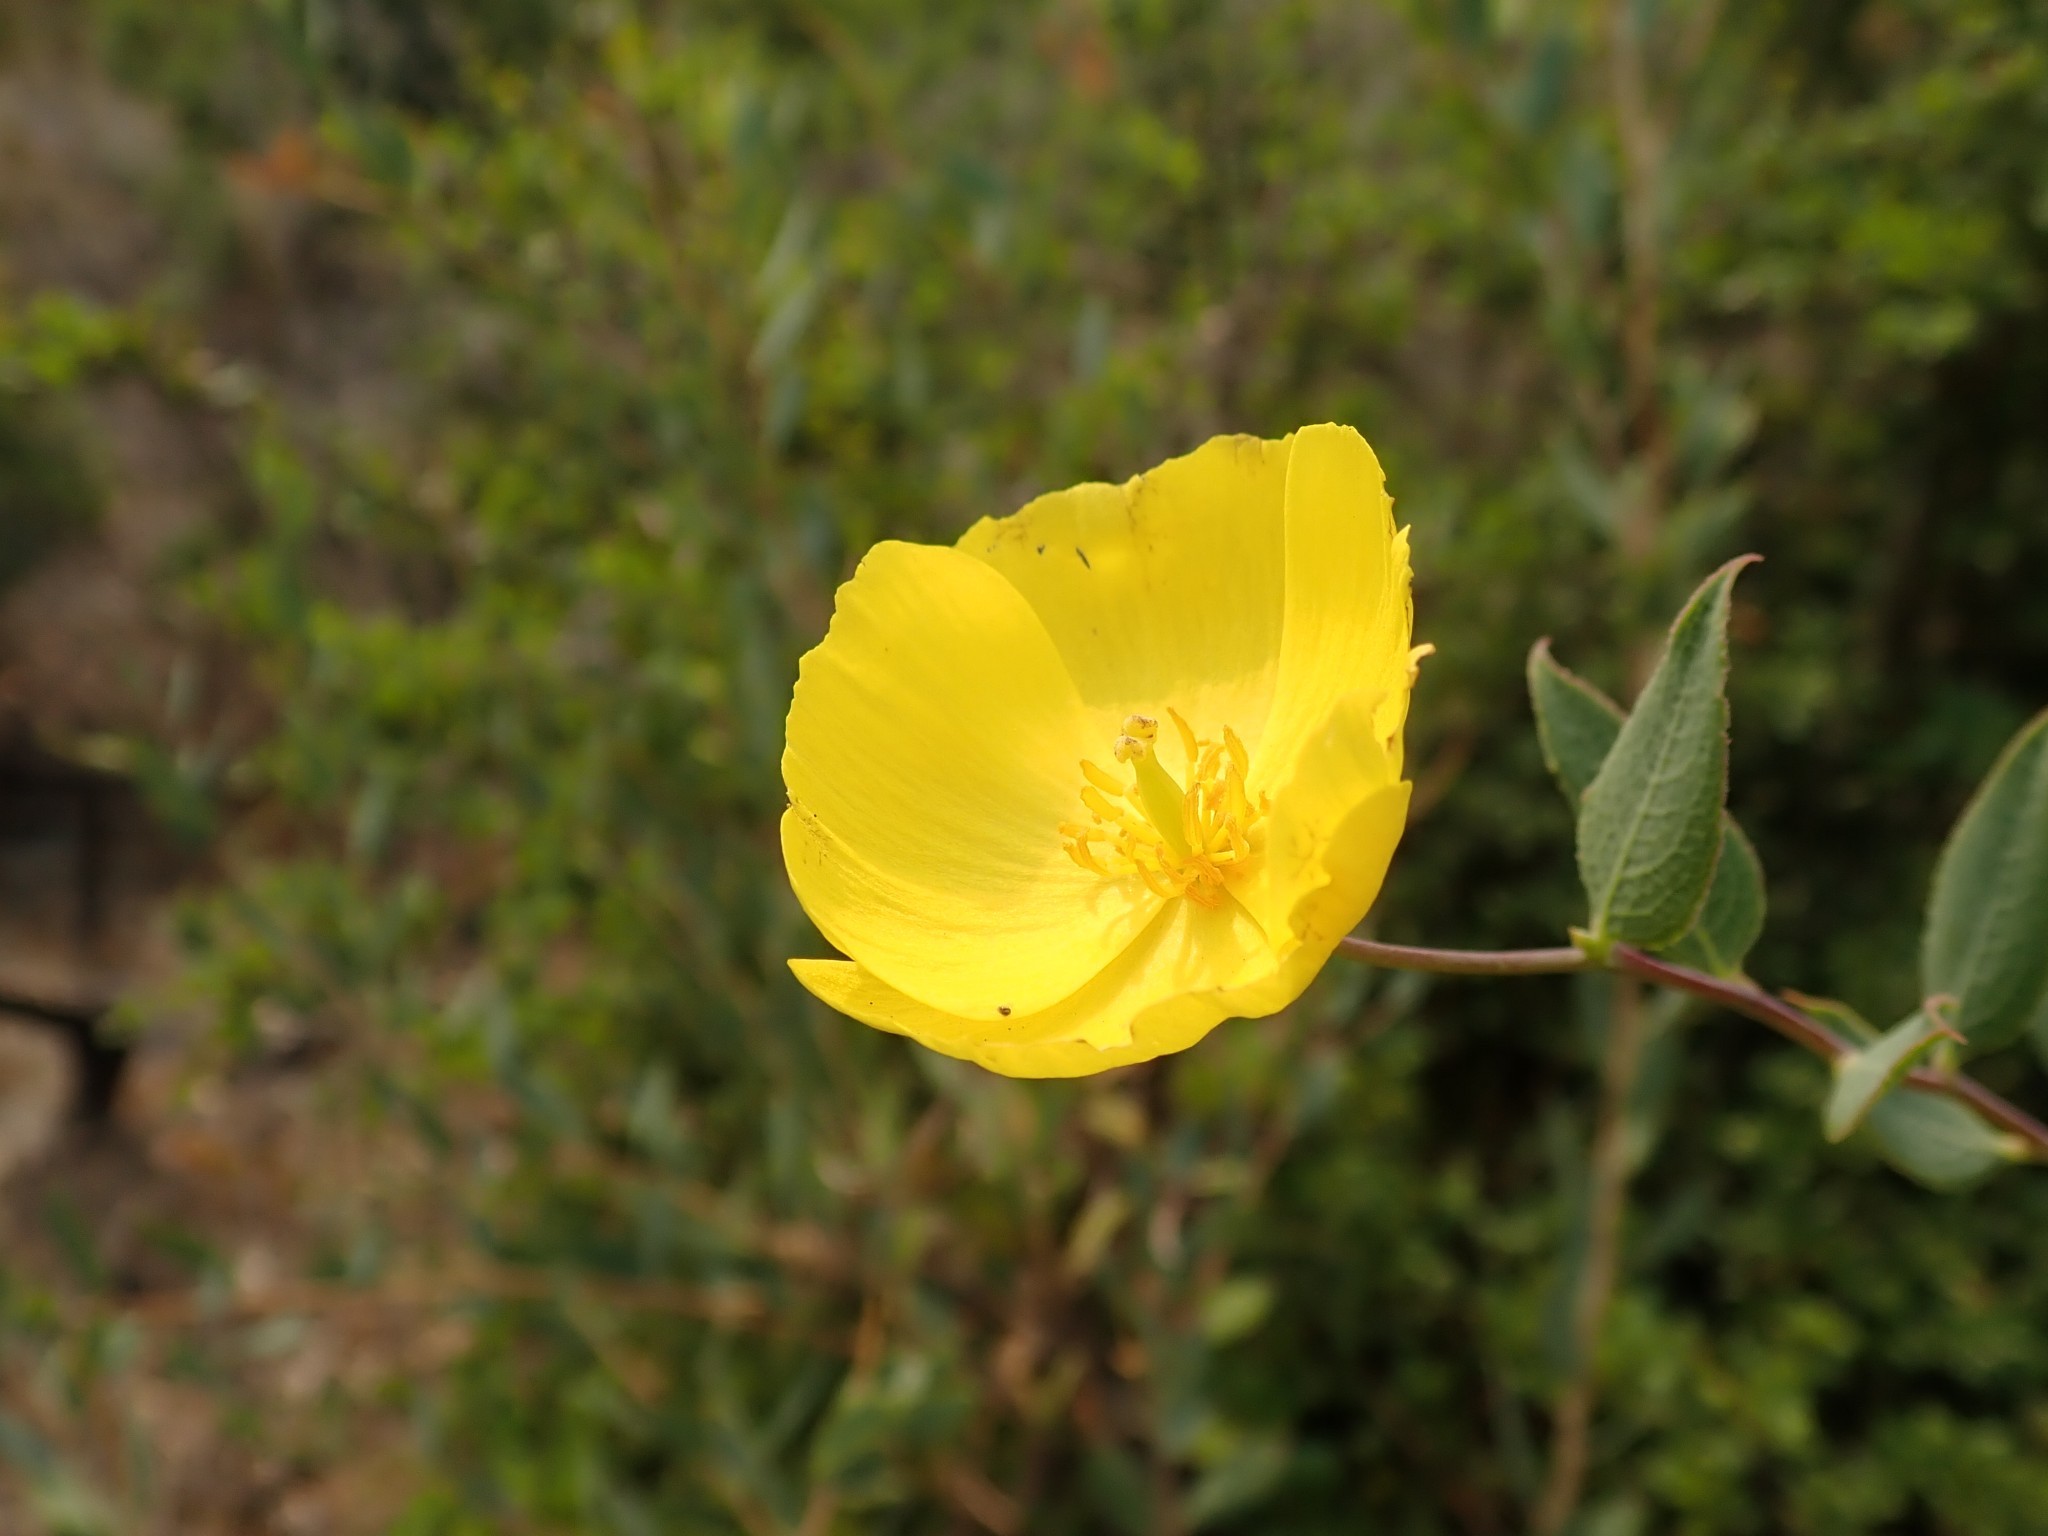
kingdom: Plantae
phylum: Tracheophyta
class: Magnoliopsida
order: Ranunculales
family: Papaveraceae
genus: Dendromecon
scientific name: Dendromecon rigida
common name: Tree poppy
